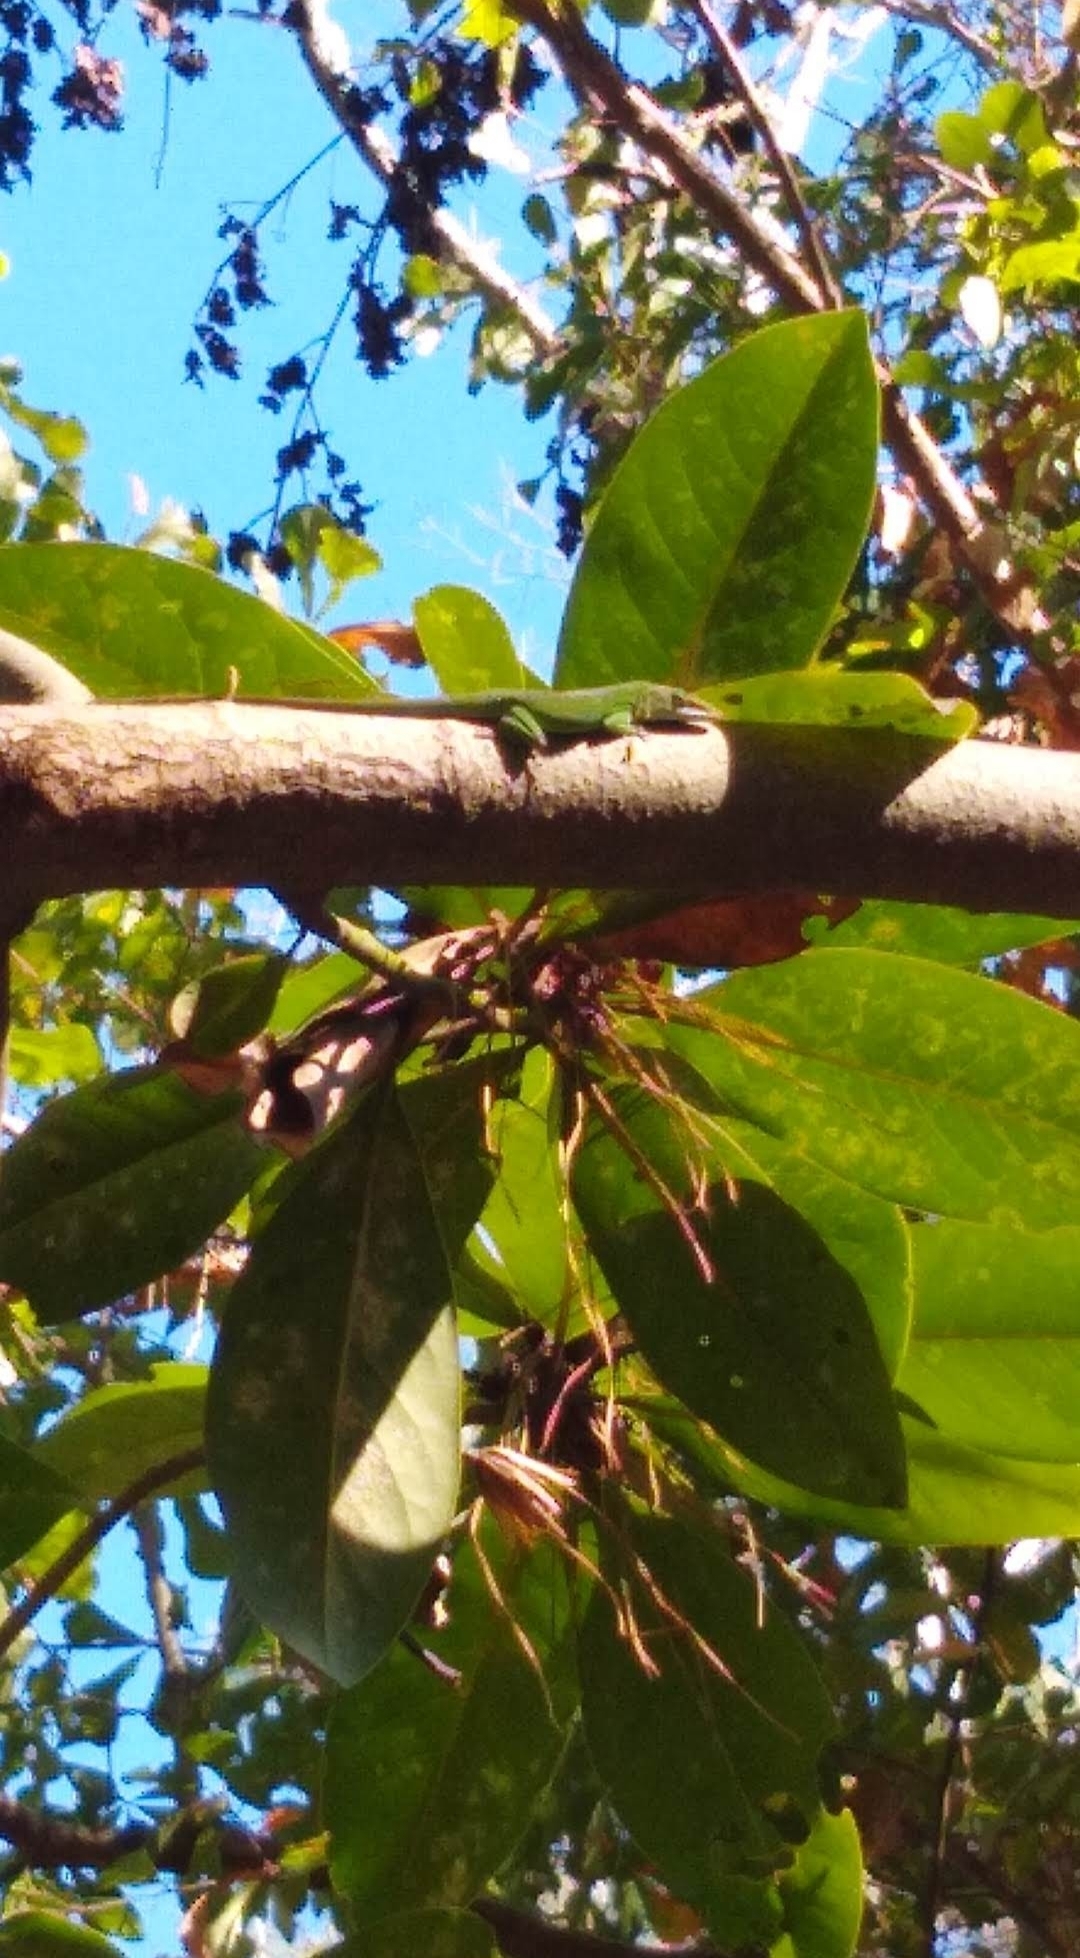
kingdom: Animalia
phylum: Chordata
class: Squamata
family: Dactyloidae
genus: Anolis
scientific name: Anolis carolinensis
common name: Green anole
